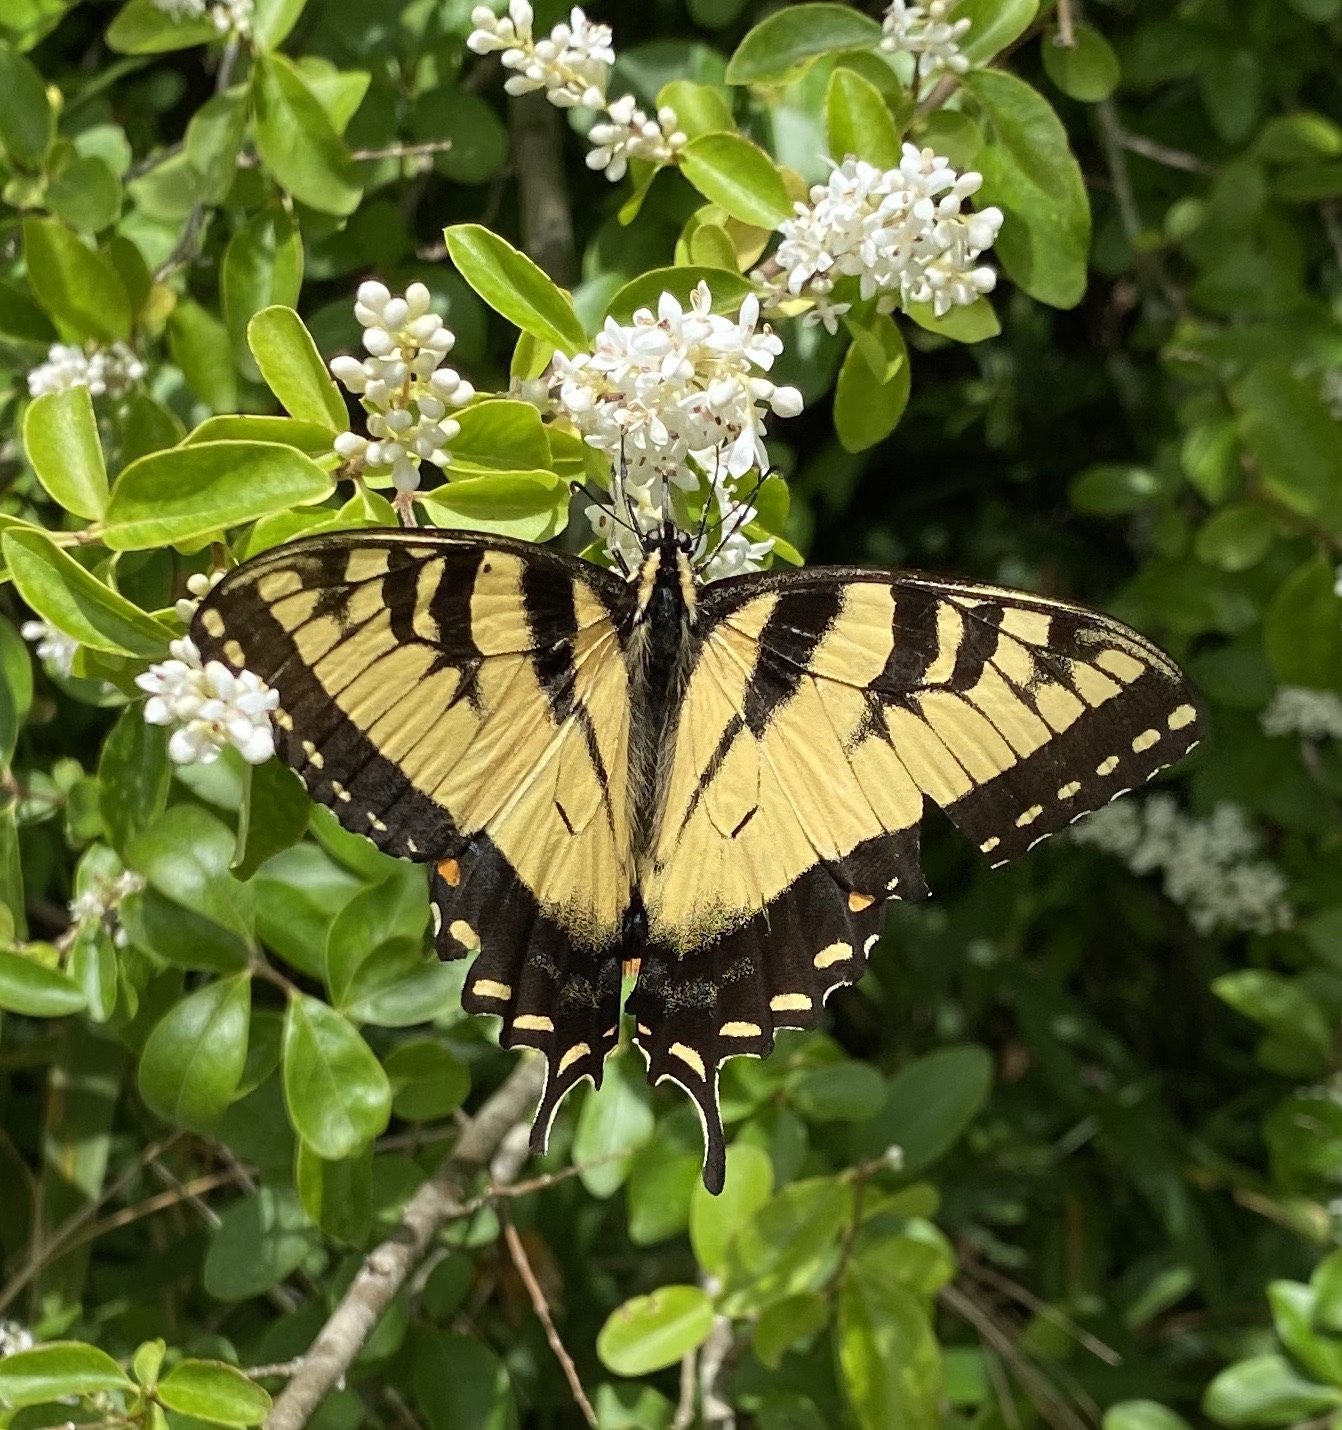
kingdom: Animalia
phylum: Arthropoda
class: Insecta
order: Lepidoptera
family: Papilionidae
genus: Papilio
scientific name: Papilio glaucus
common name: Tiger swallowtail
